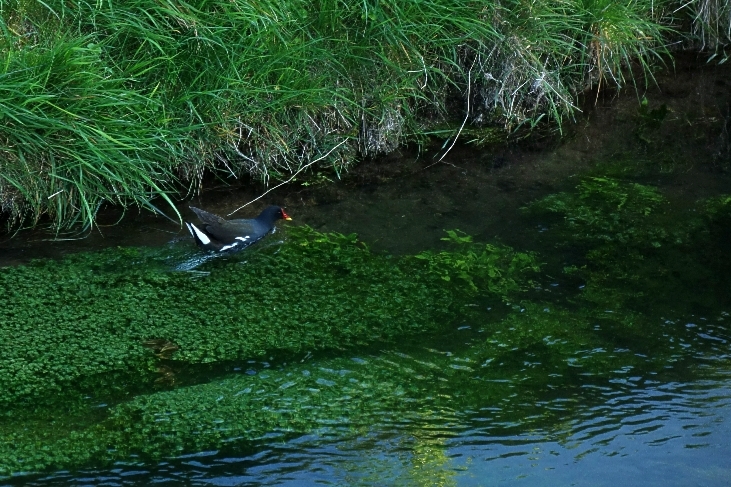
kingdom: Animalia
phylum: Chordata
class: Aves
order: Gruiformes
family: Rallidae
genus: Gallinula
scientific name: Gallinula chloropus
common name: Common moorhen
